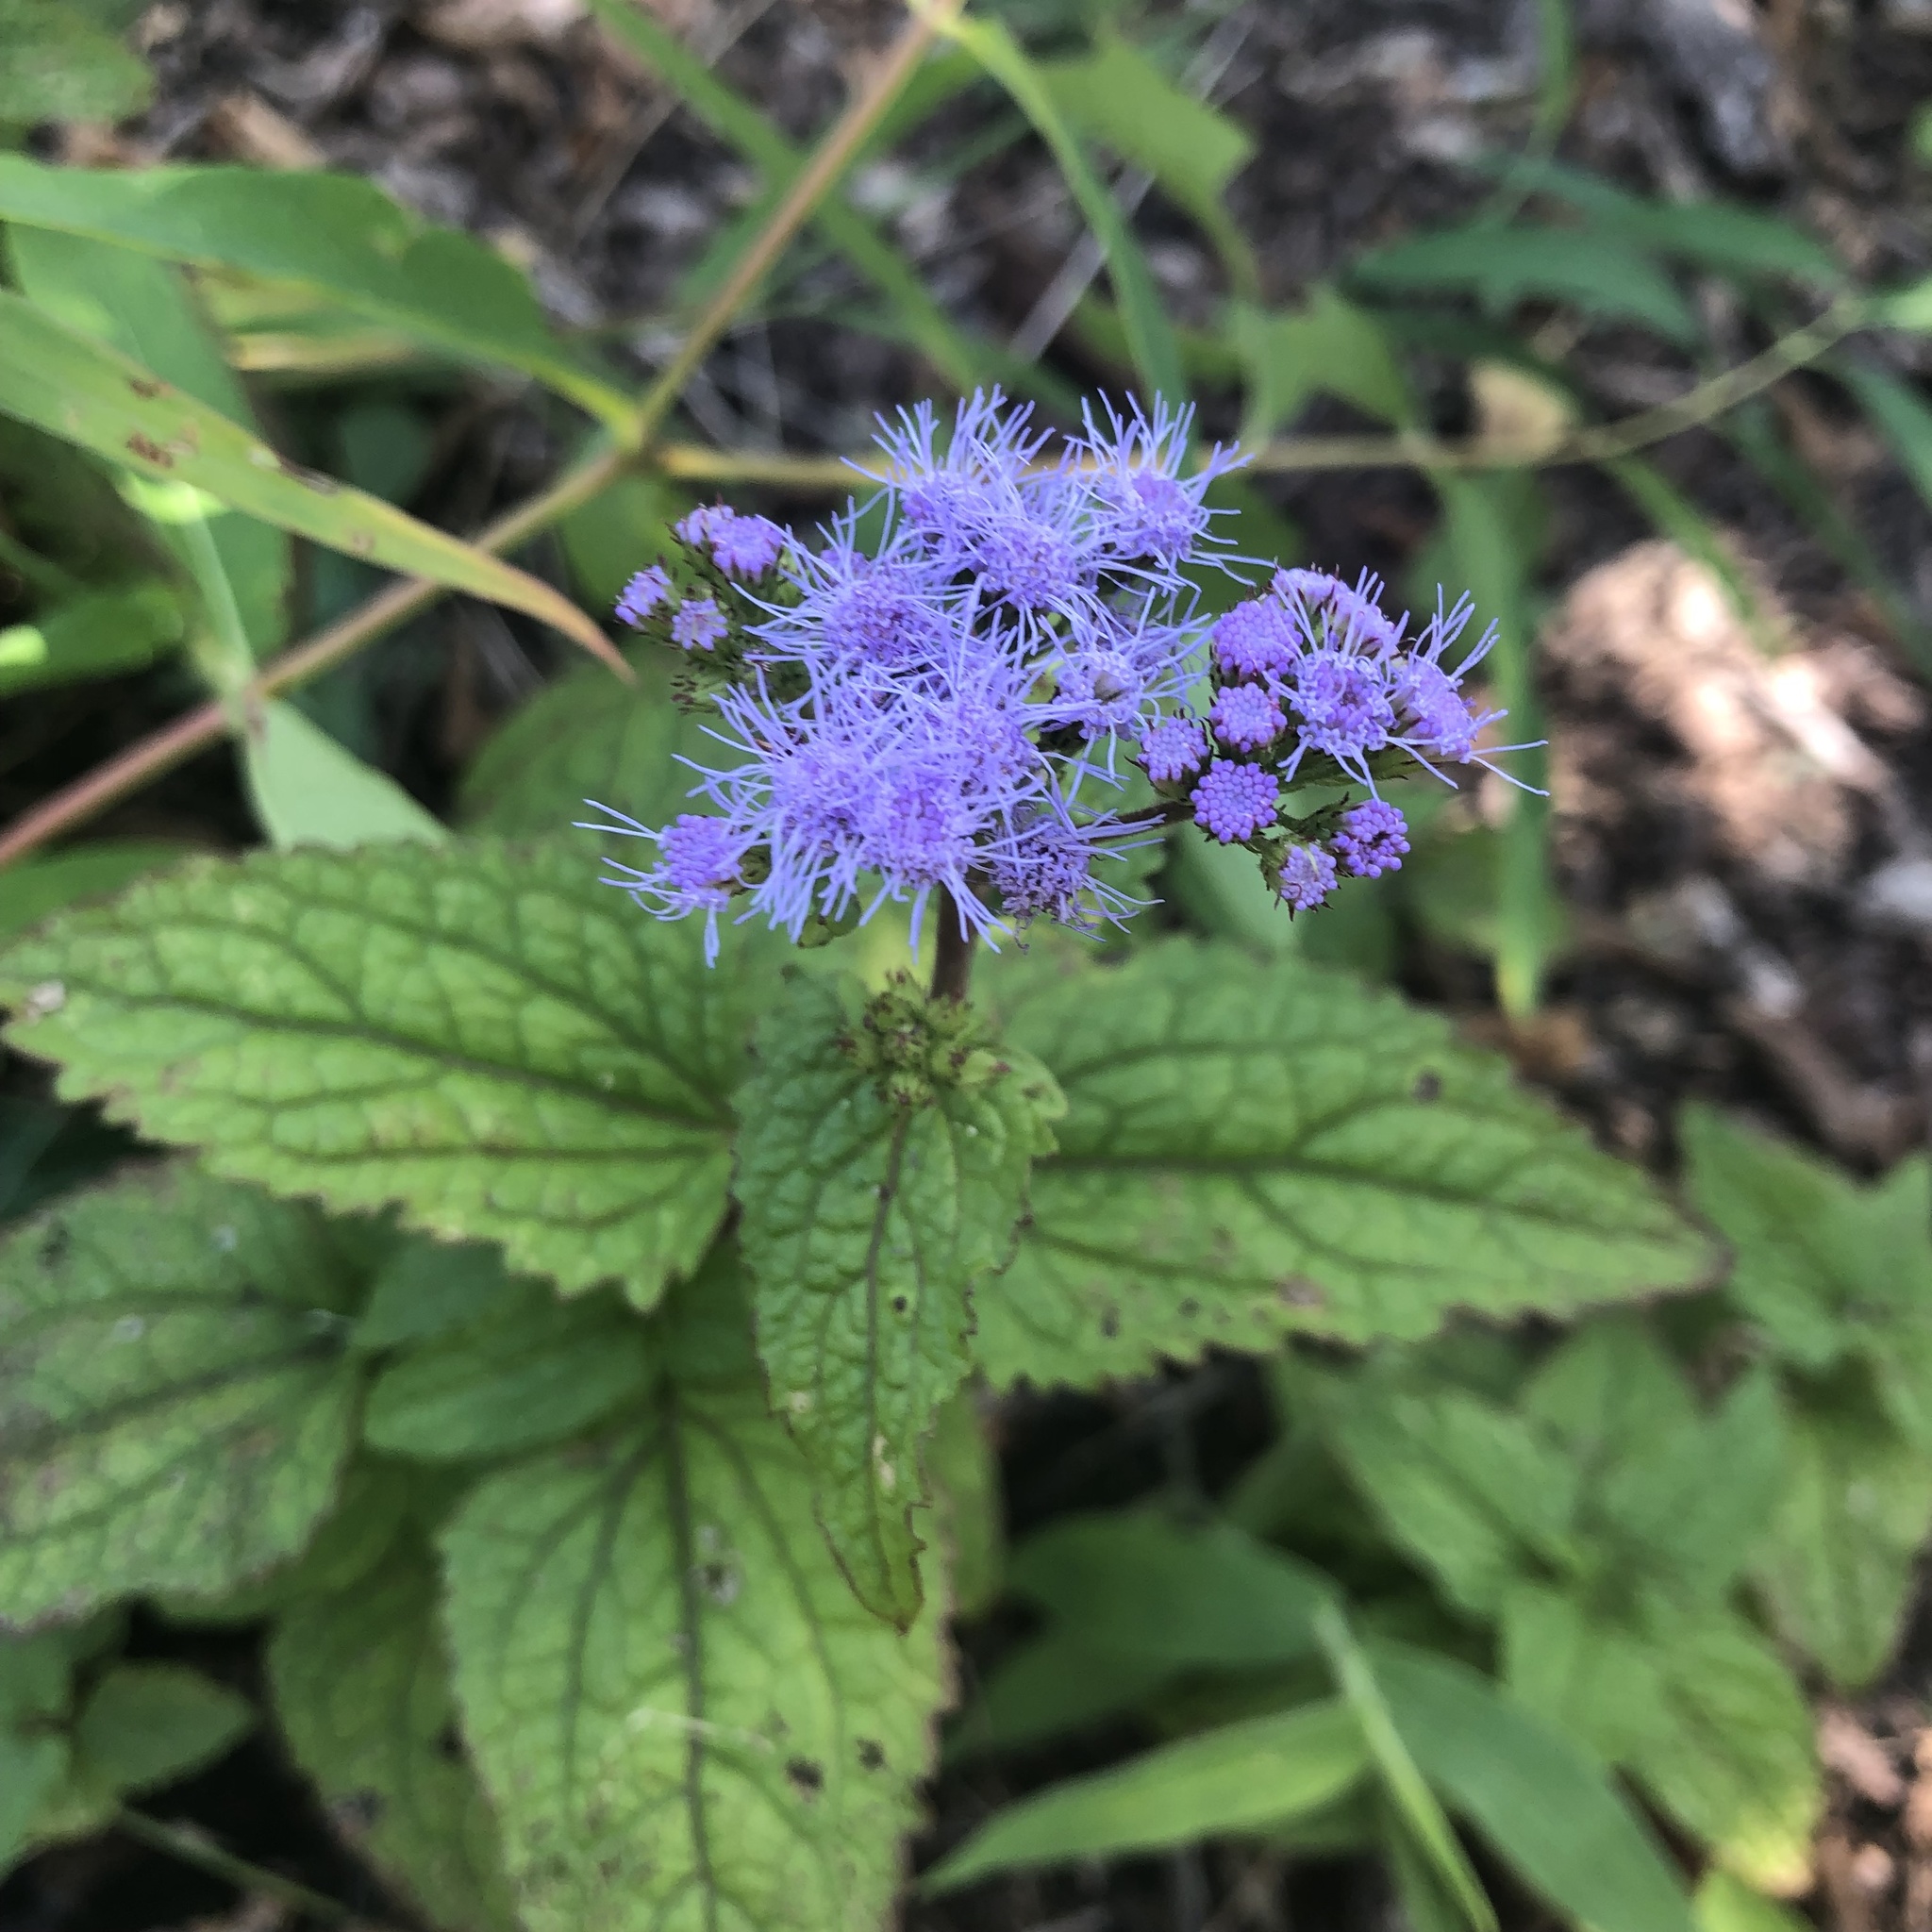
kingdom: Plantae
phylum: Tracheophyta
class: Magnoliopsida
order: Asterales
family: Asteraceae
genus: Conoclinium
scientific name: Conoclinium coelestinum
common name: Blue mistflower
